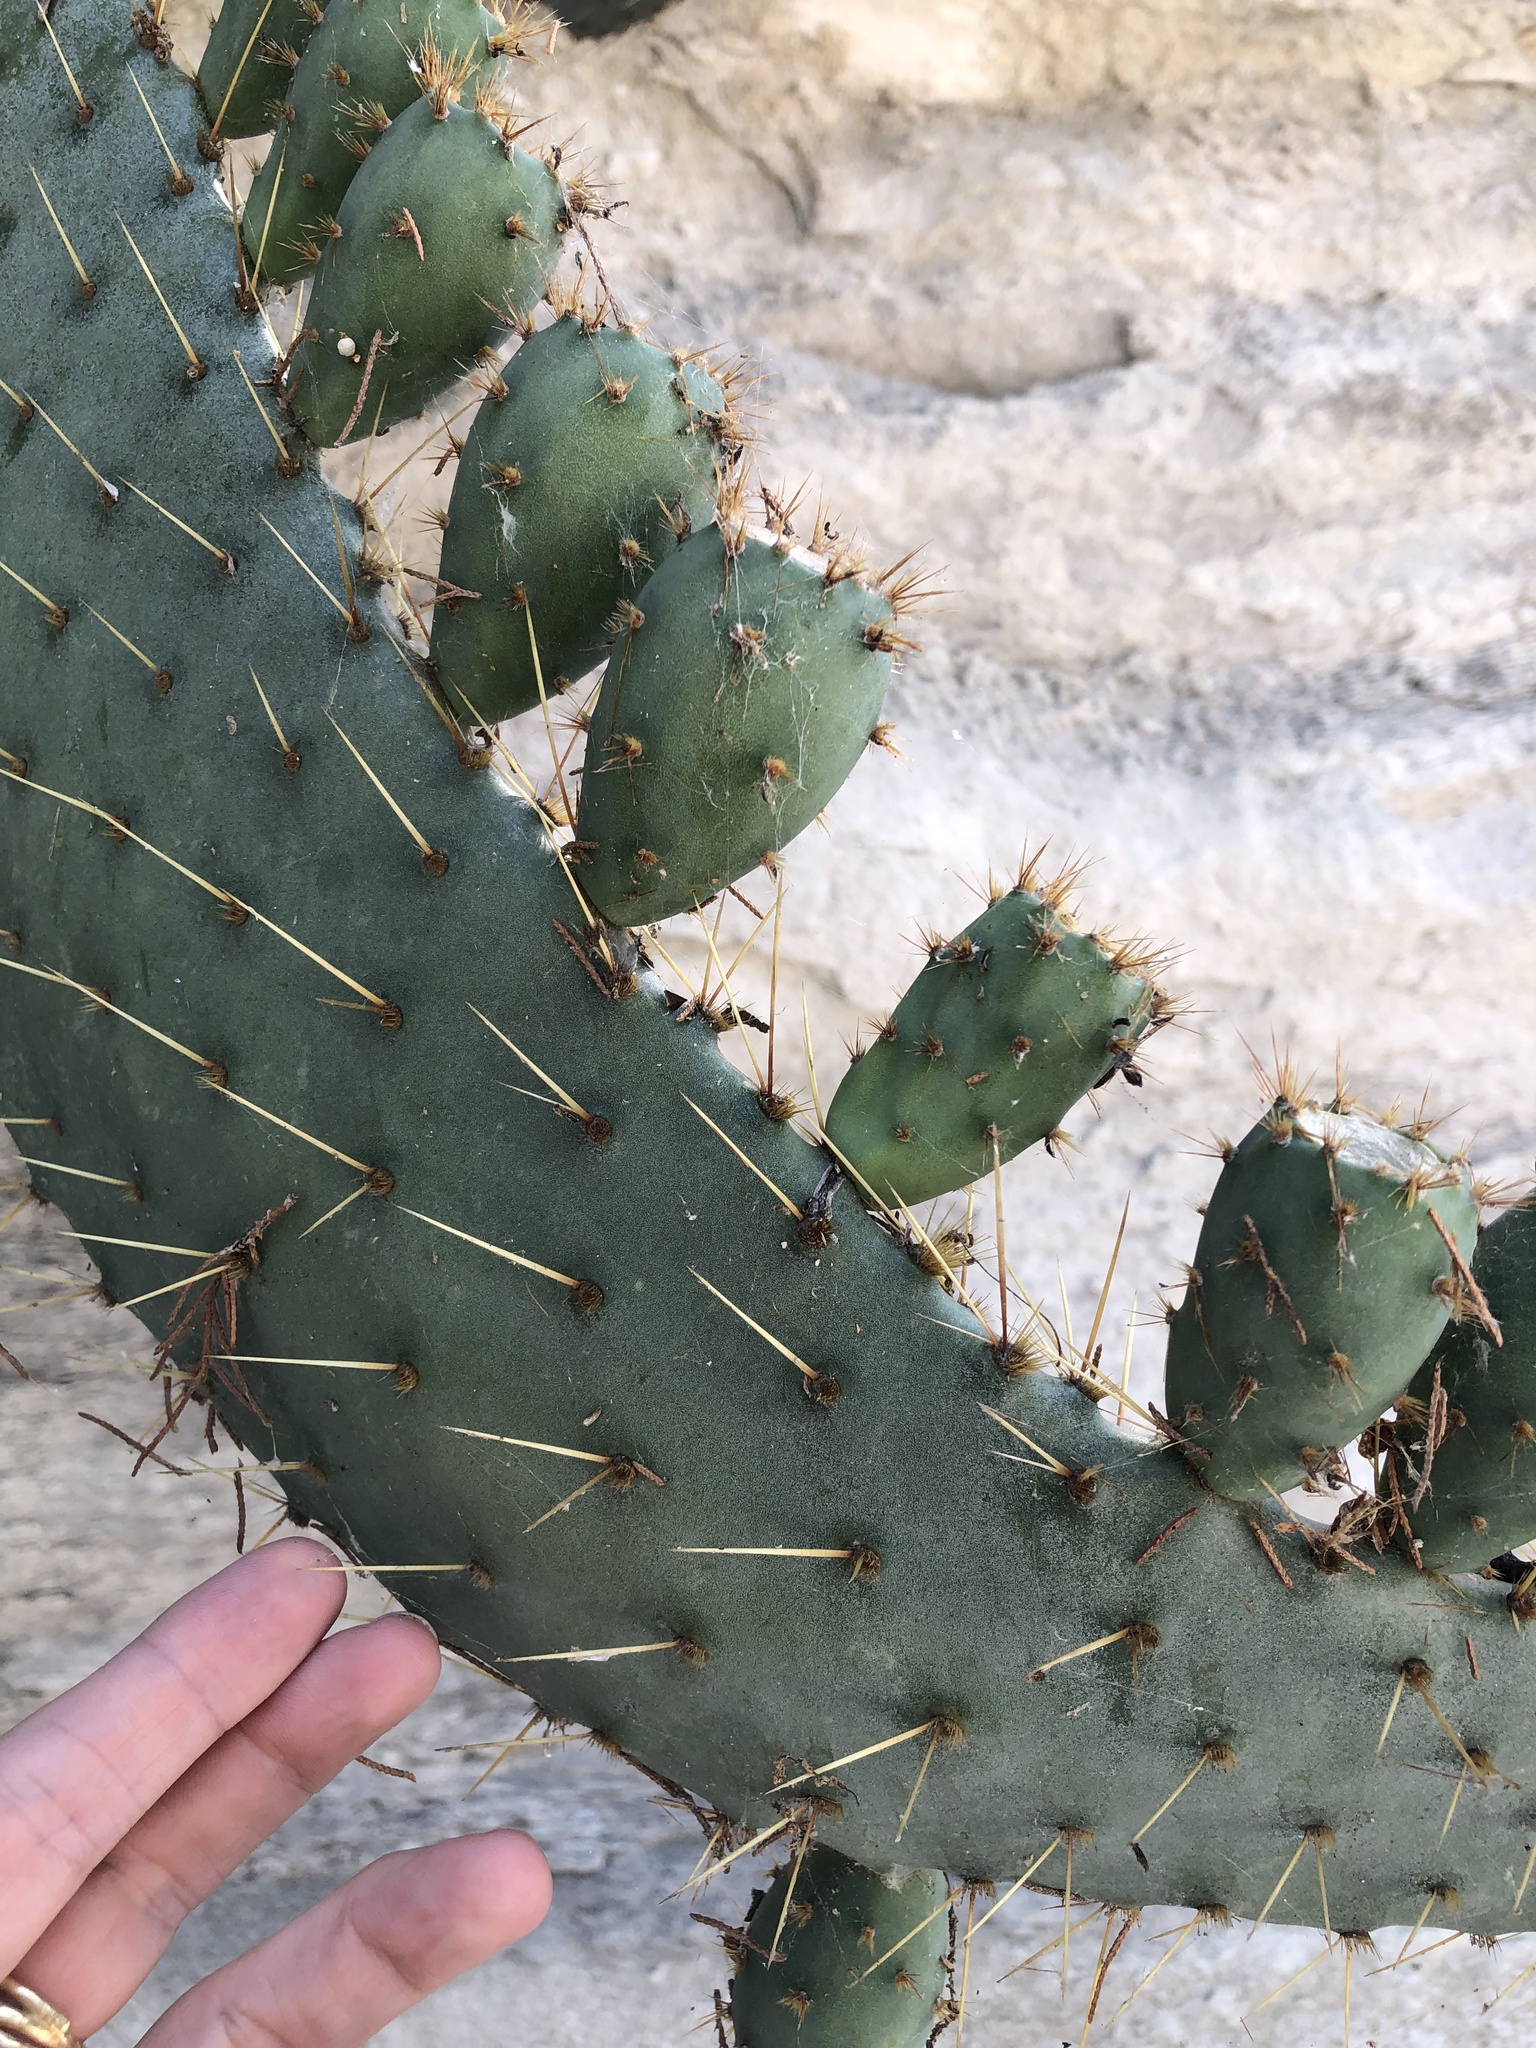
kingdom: Plantae
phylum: Tracheophyta
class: Magnoliopsida
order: Caryophyllales
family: Cactaceae
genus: Opuntia
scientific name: Opuntia engelmannii
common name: Cactus-apple
